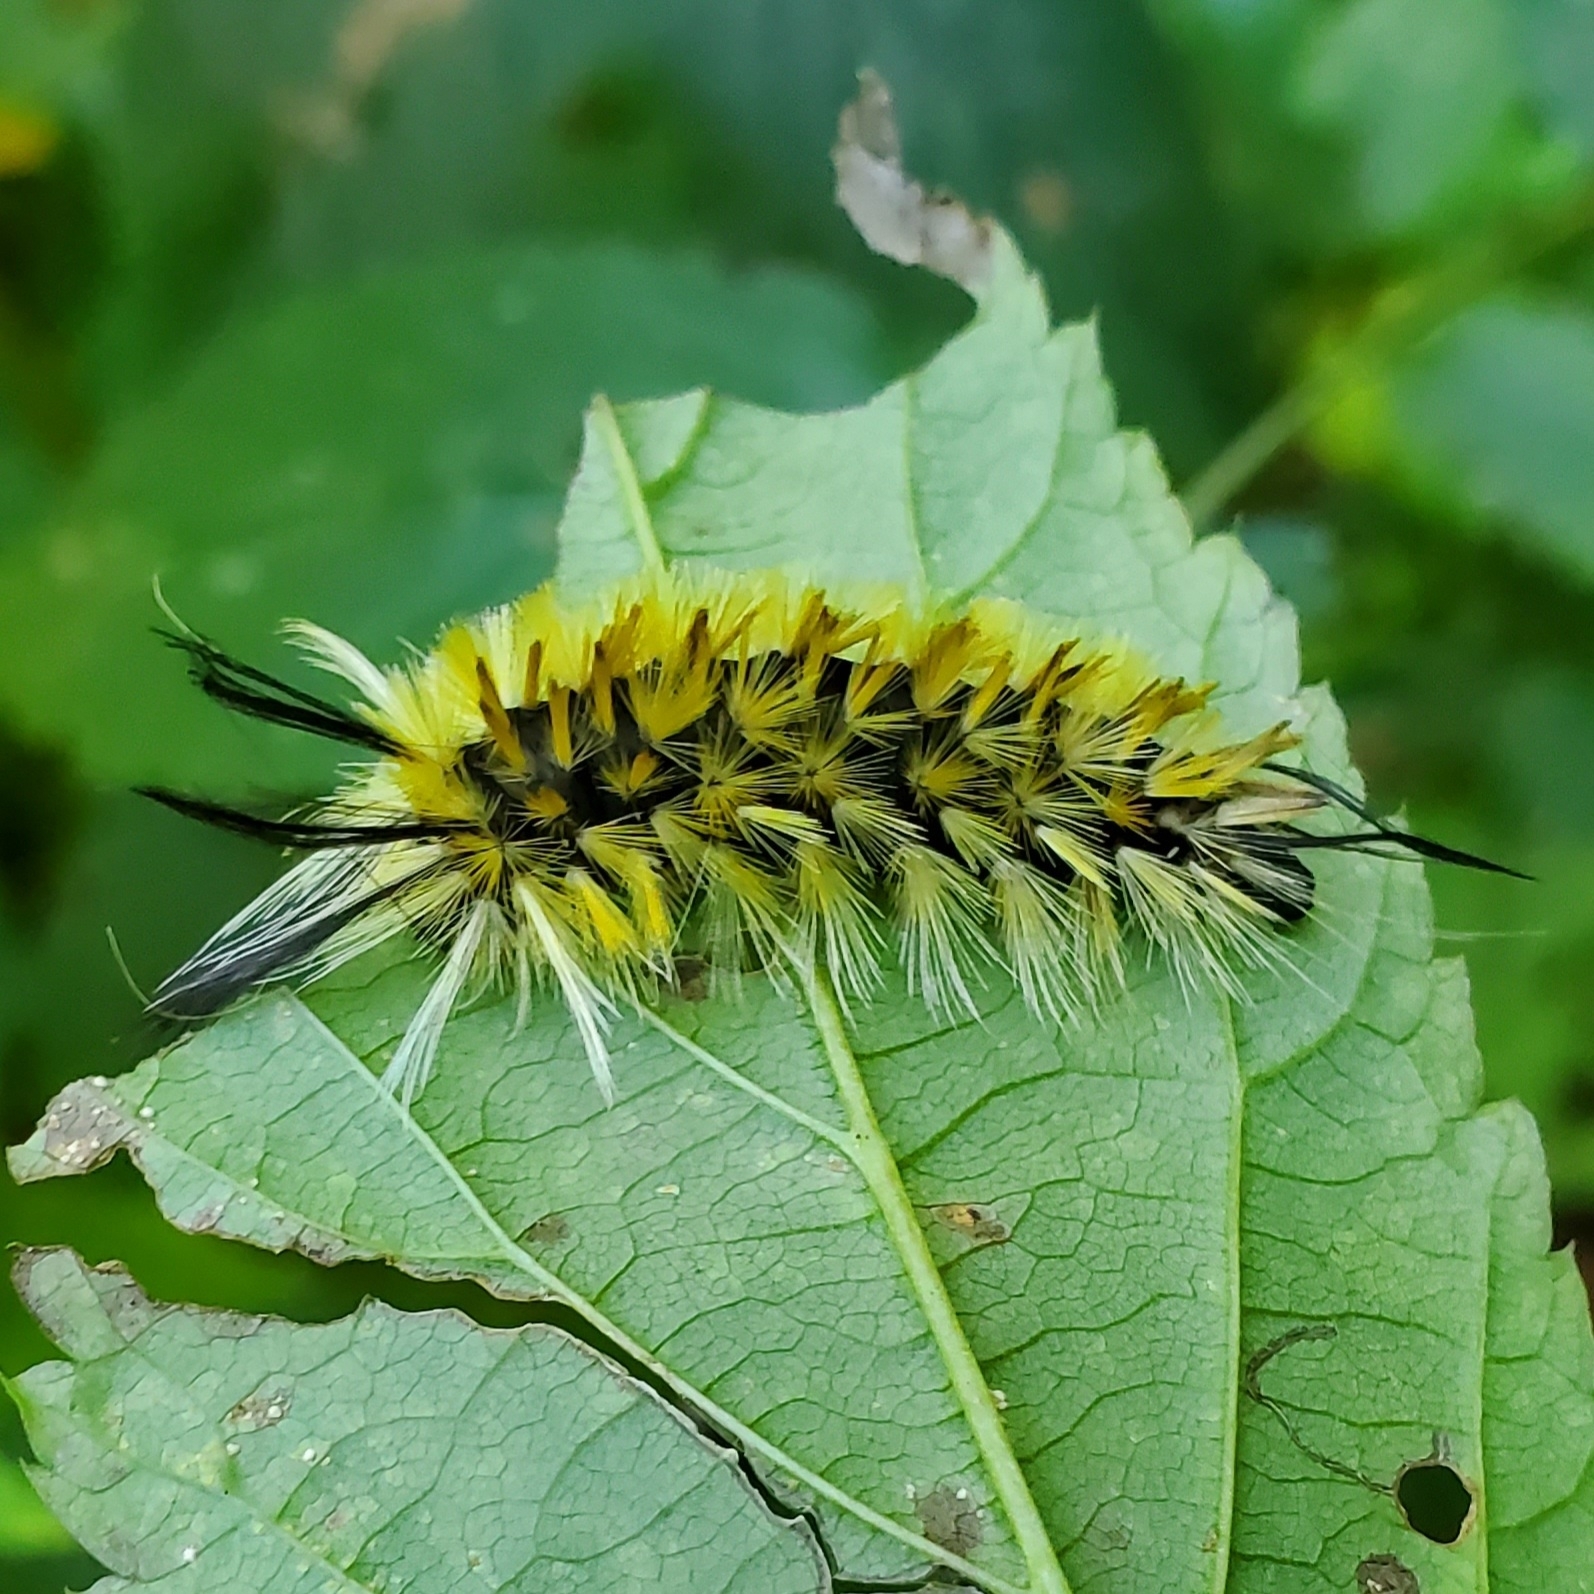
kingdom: Animalia
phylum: Arthropoda
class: Insecta
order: Lepidoptera
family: Erebidae
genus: Halysidota
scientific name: Halysidota tessellaris
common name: Banded tussock moth
